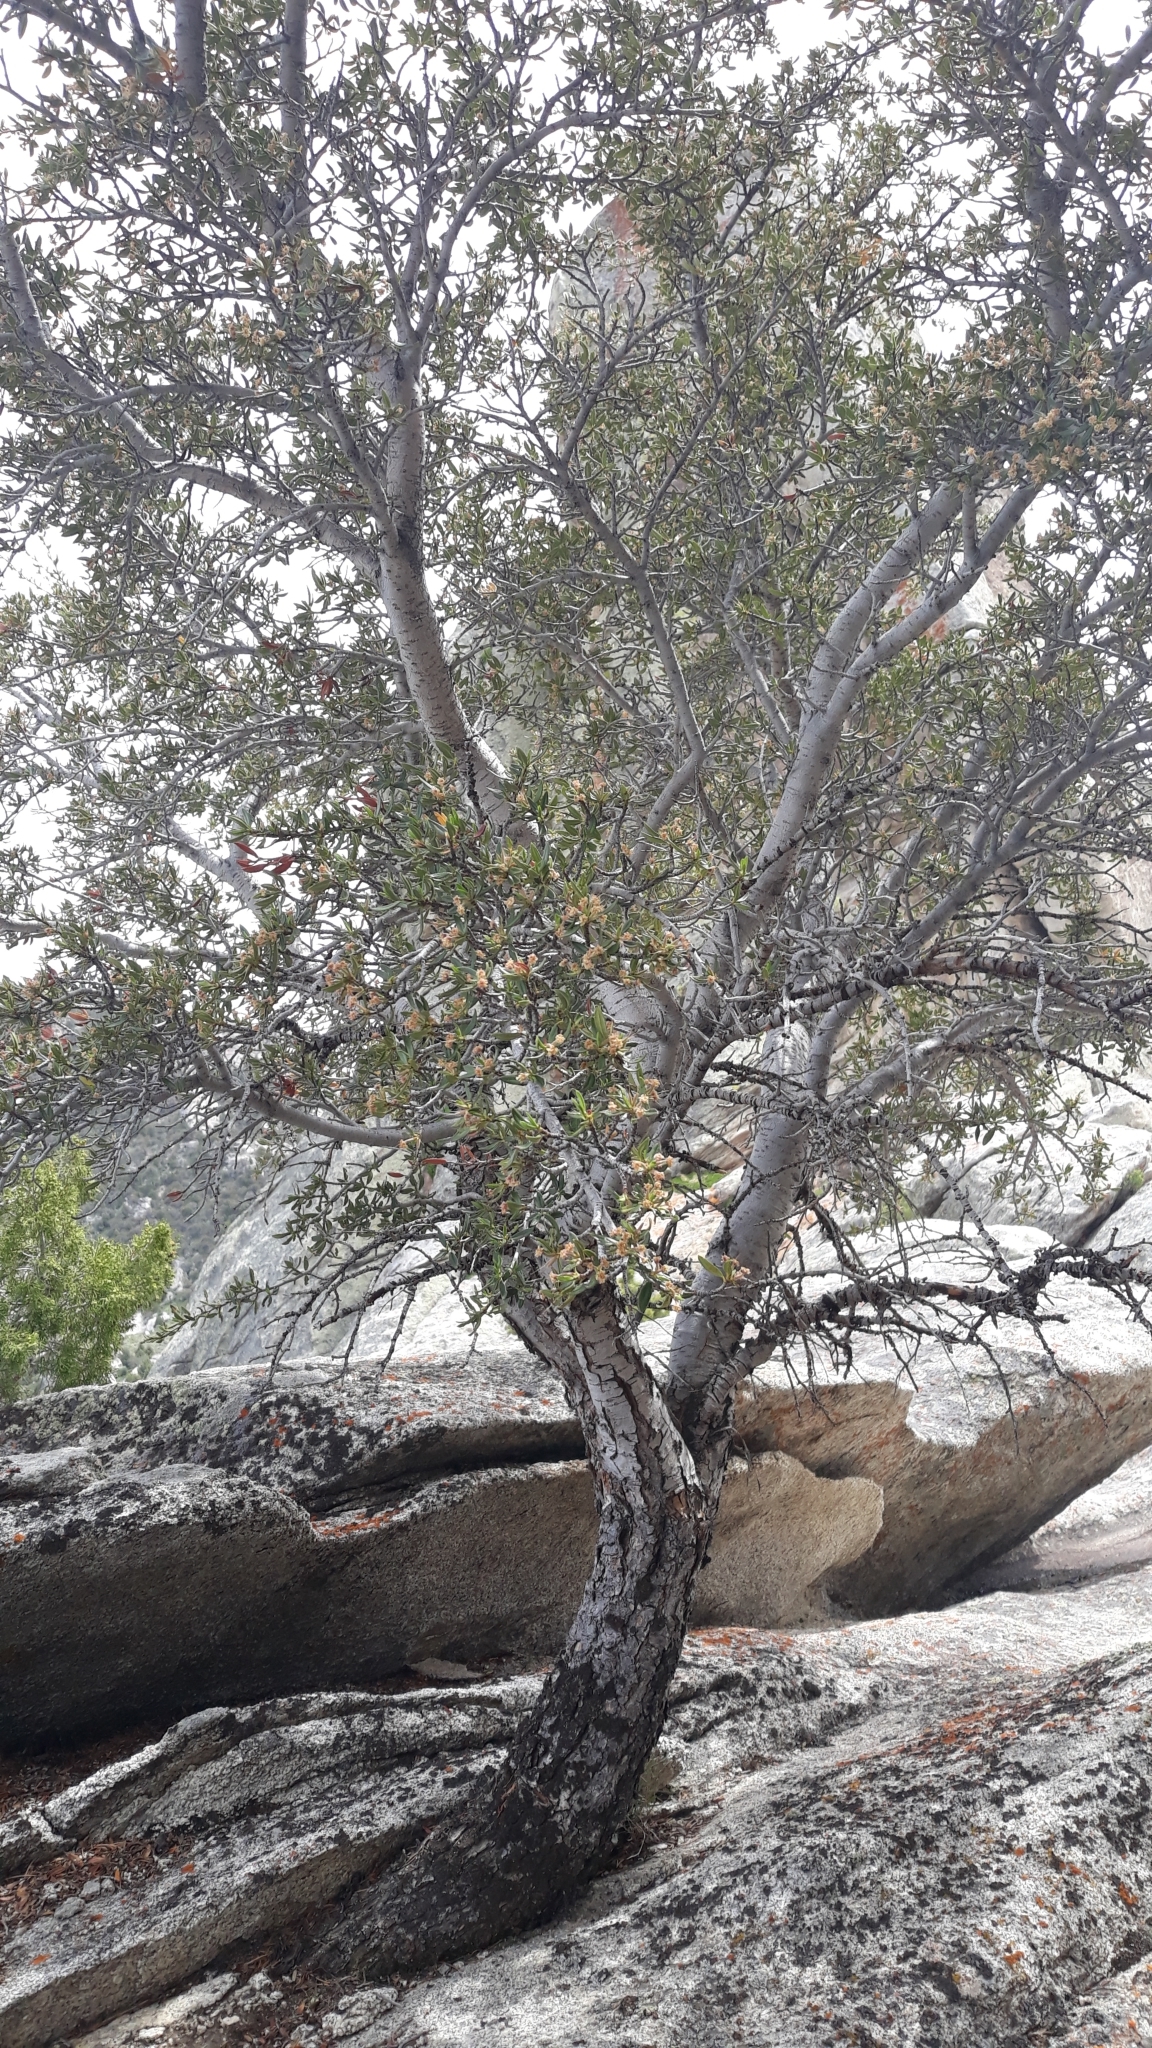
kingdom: Plantae
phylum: Tracheophyta
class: Magnoliopsida
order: Rosales
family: Rosaceae
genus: Cercocarpus
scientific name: Cercocarpus ledifolius
